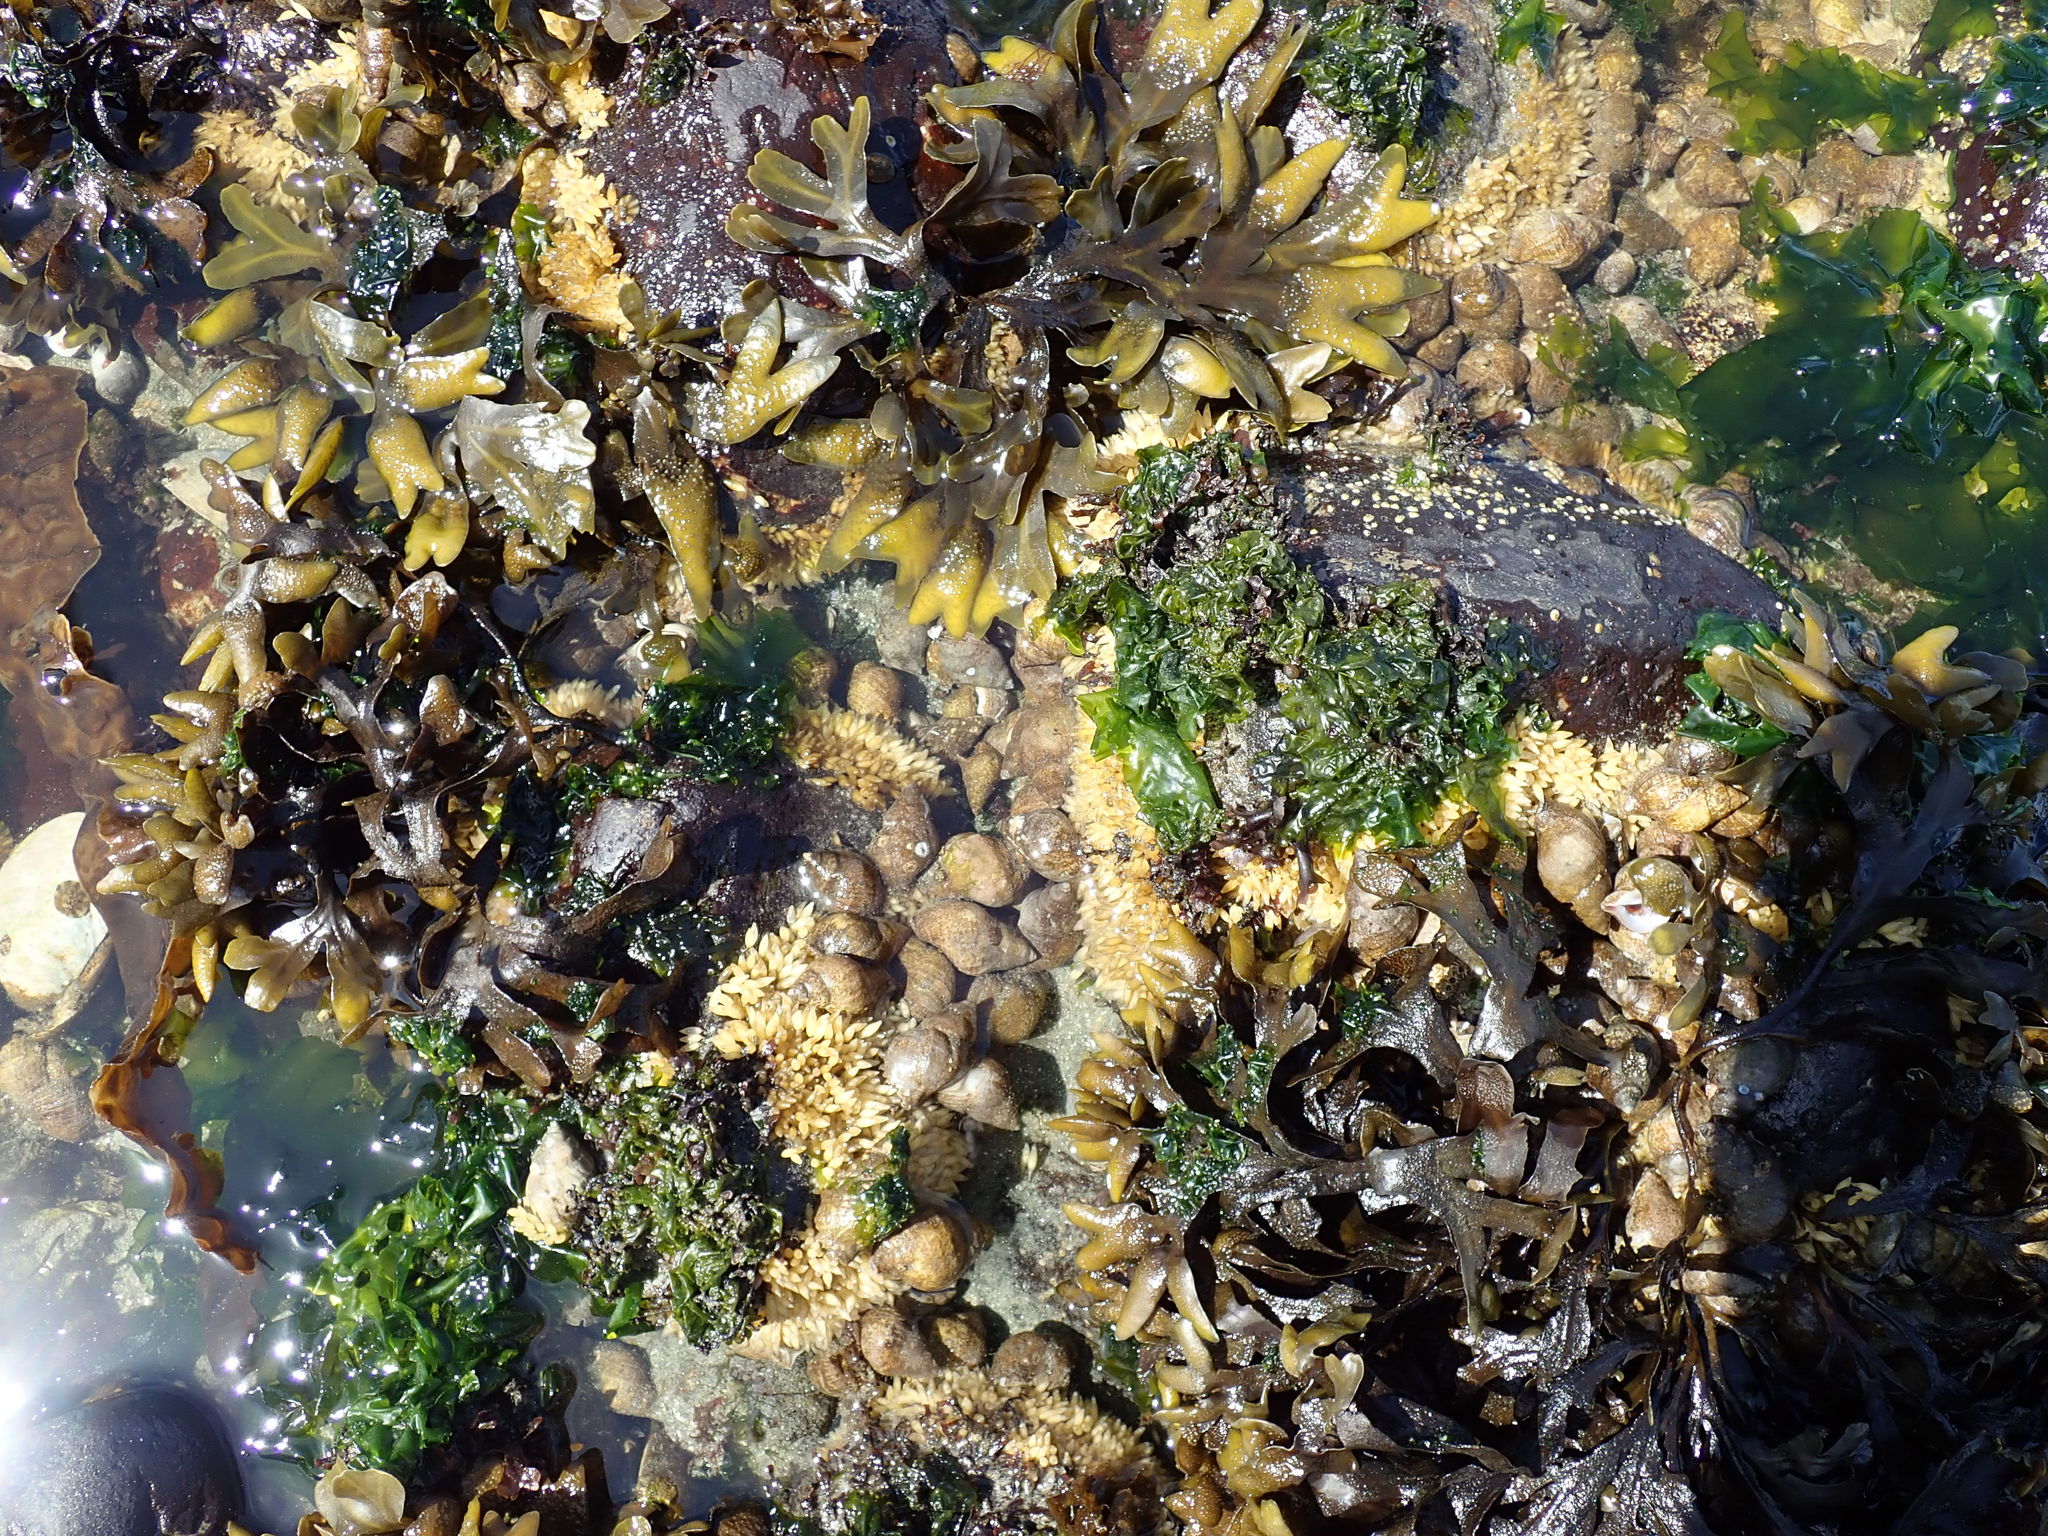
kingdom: Animalia
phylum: Mollusca
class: Gastropoda
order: Neogastropoda
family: Muricidae
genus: Nucella
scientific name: Nucella lamellosa
